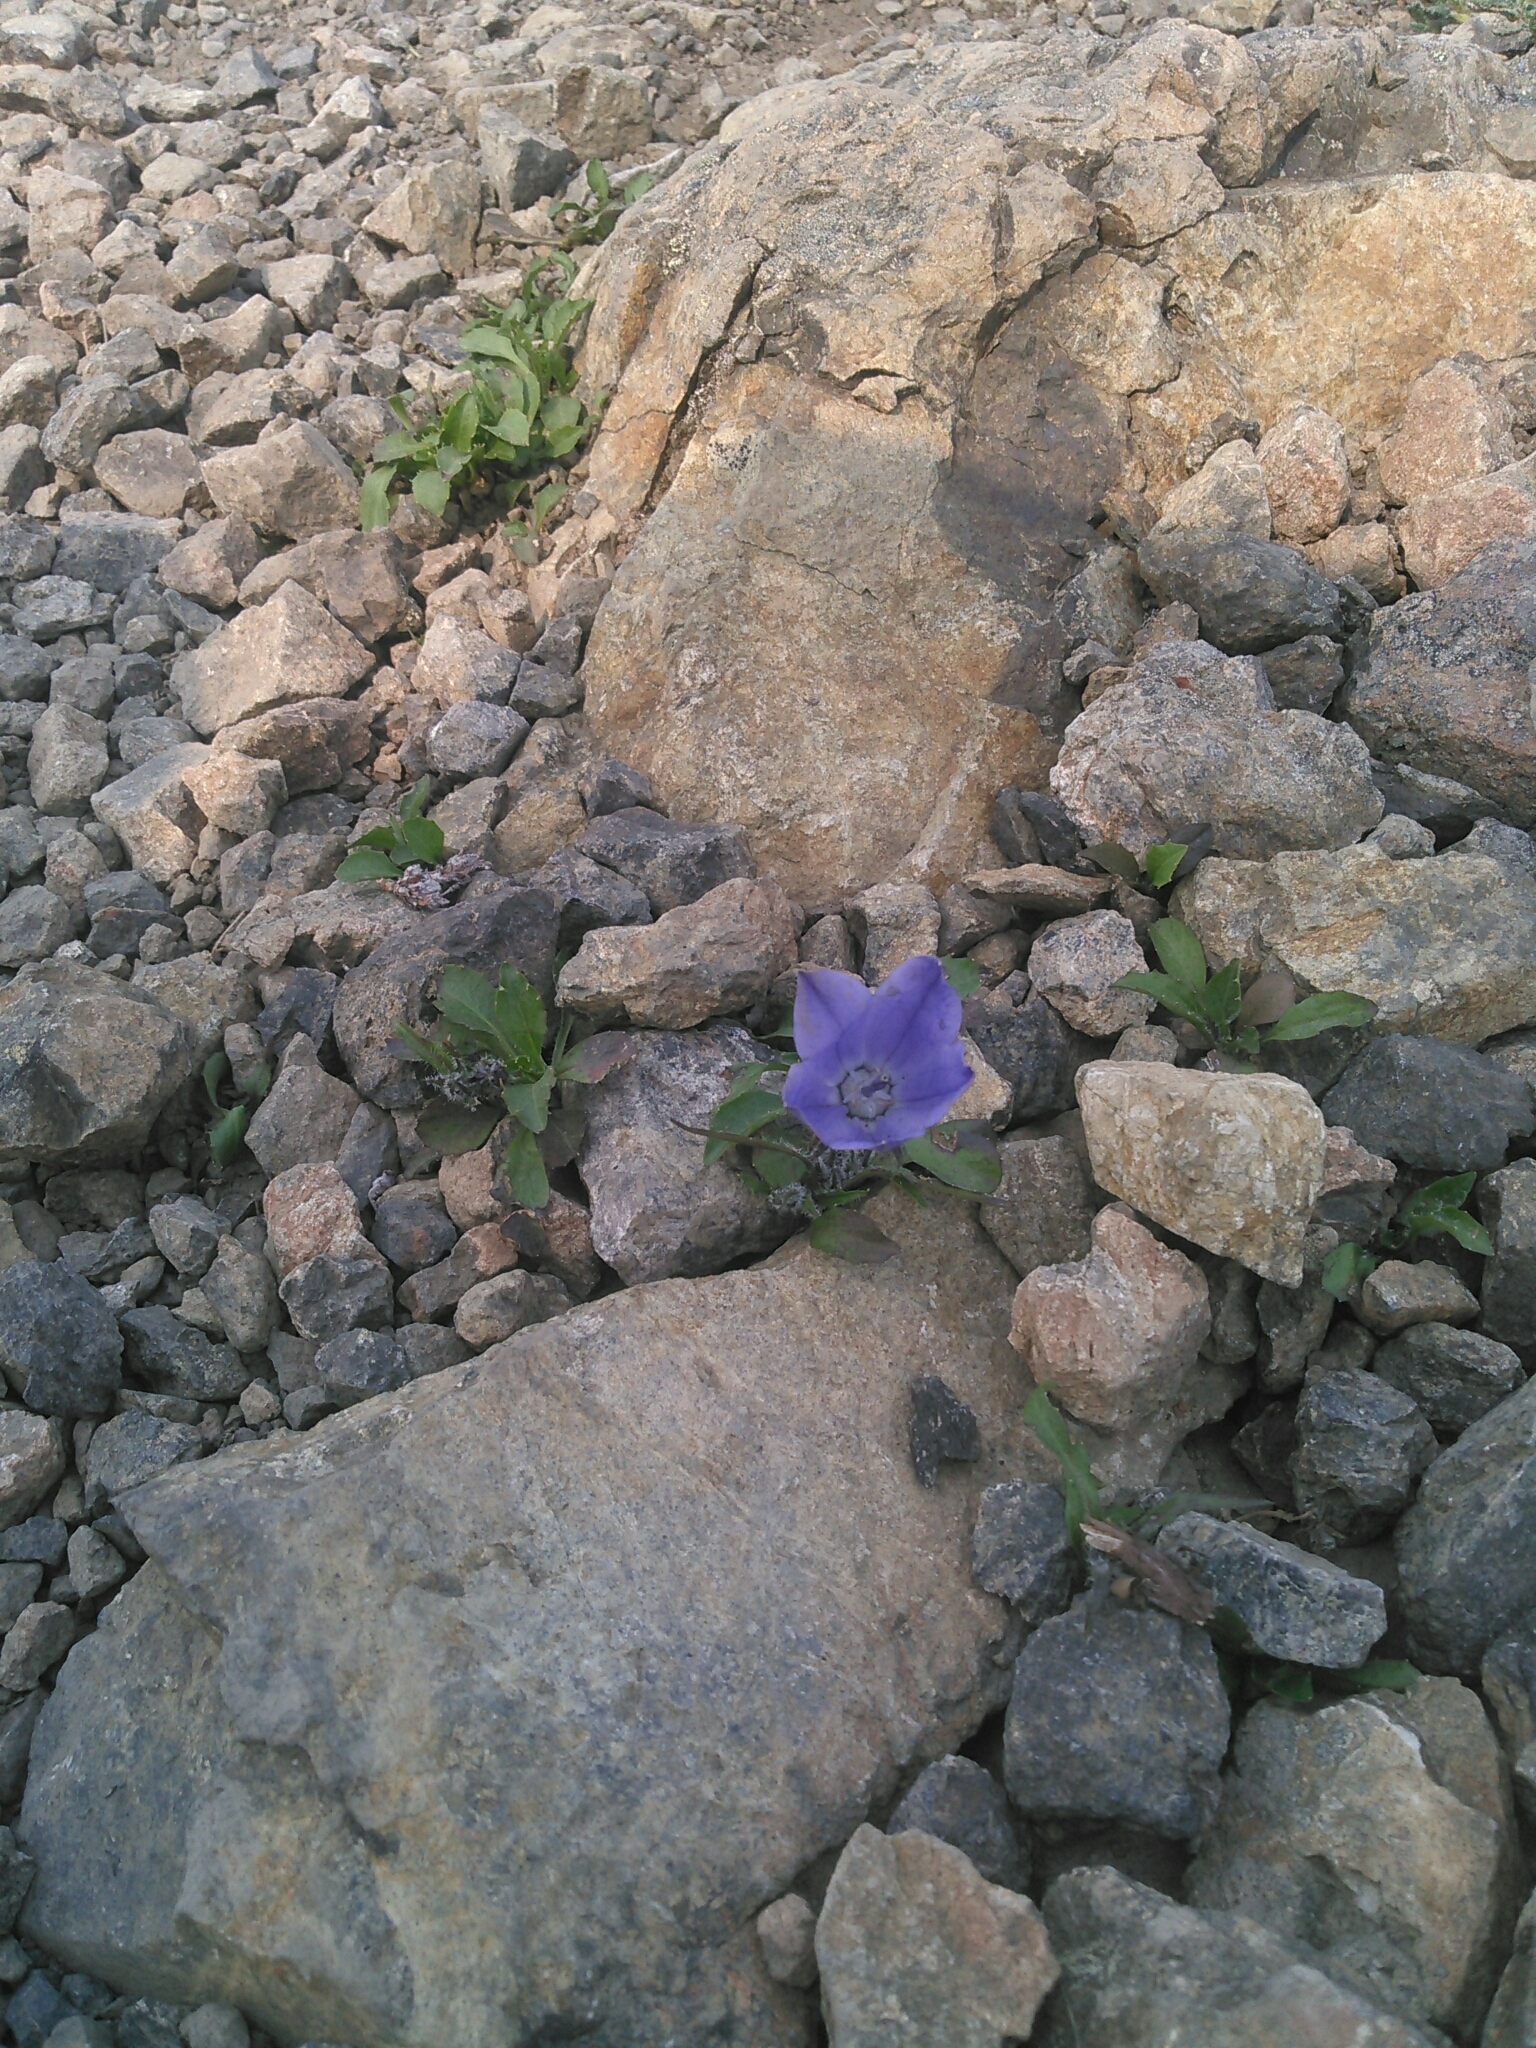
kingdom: Plantae
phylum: Tracheophyta
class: Magnoliopsida
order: Asterales
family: Campanulaceae
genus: Campanula
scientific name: Campanula lasiocarpa
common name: Mountain harebell
